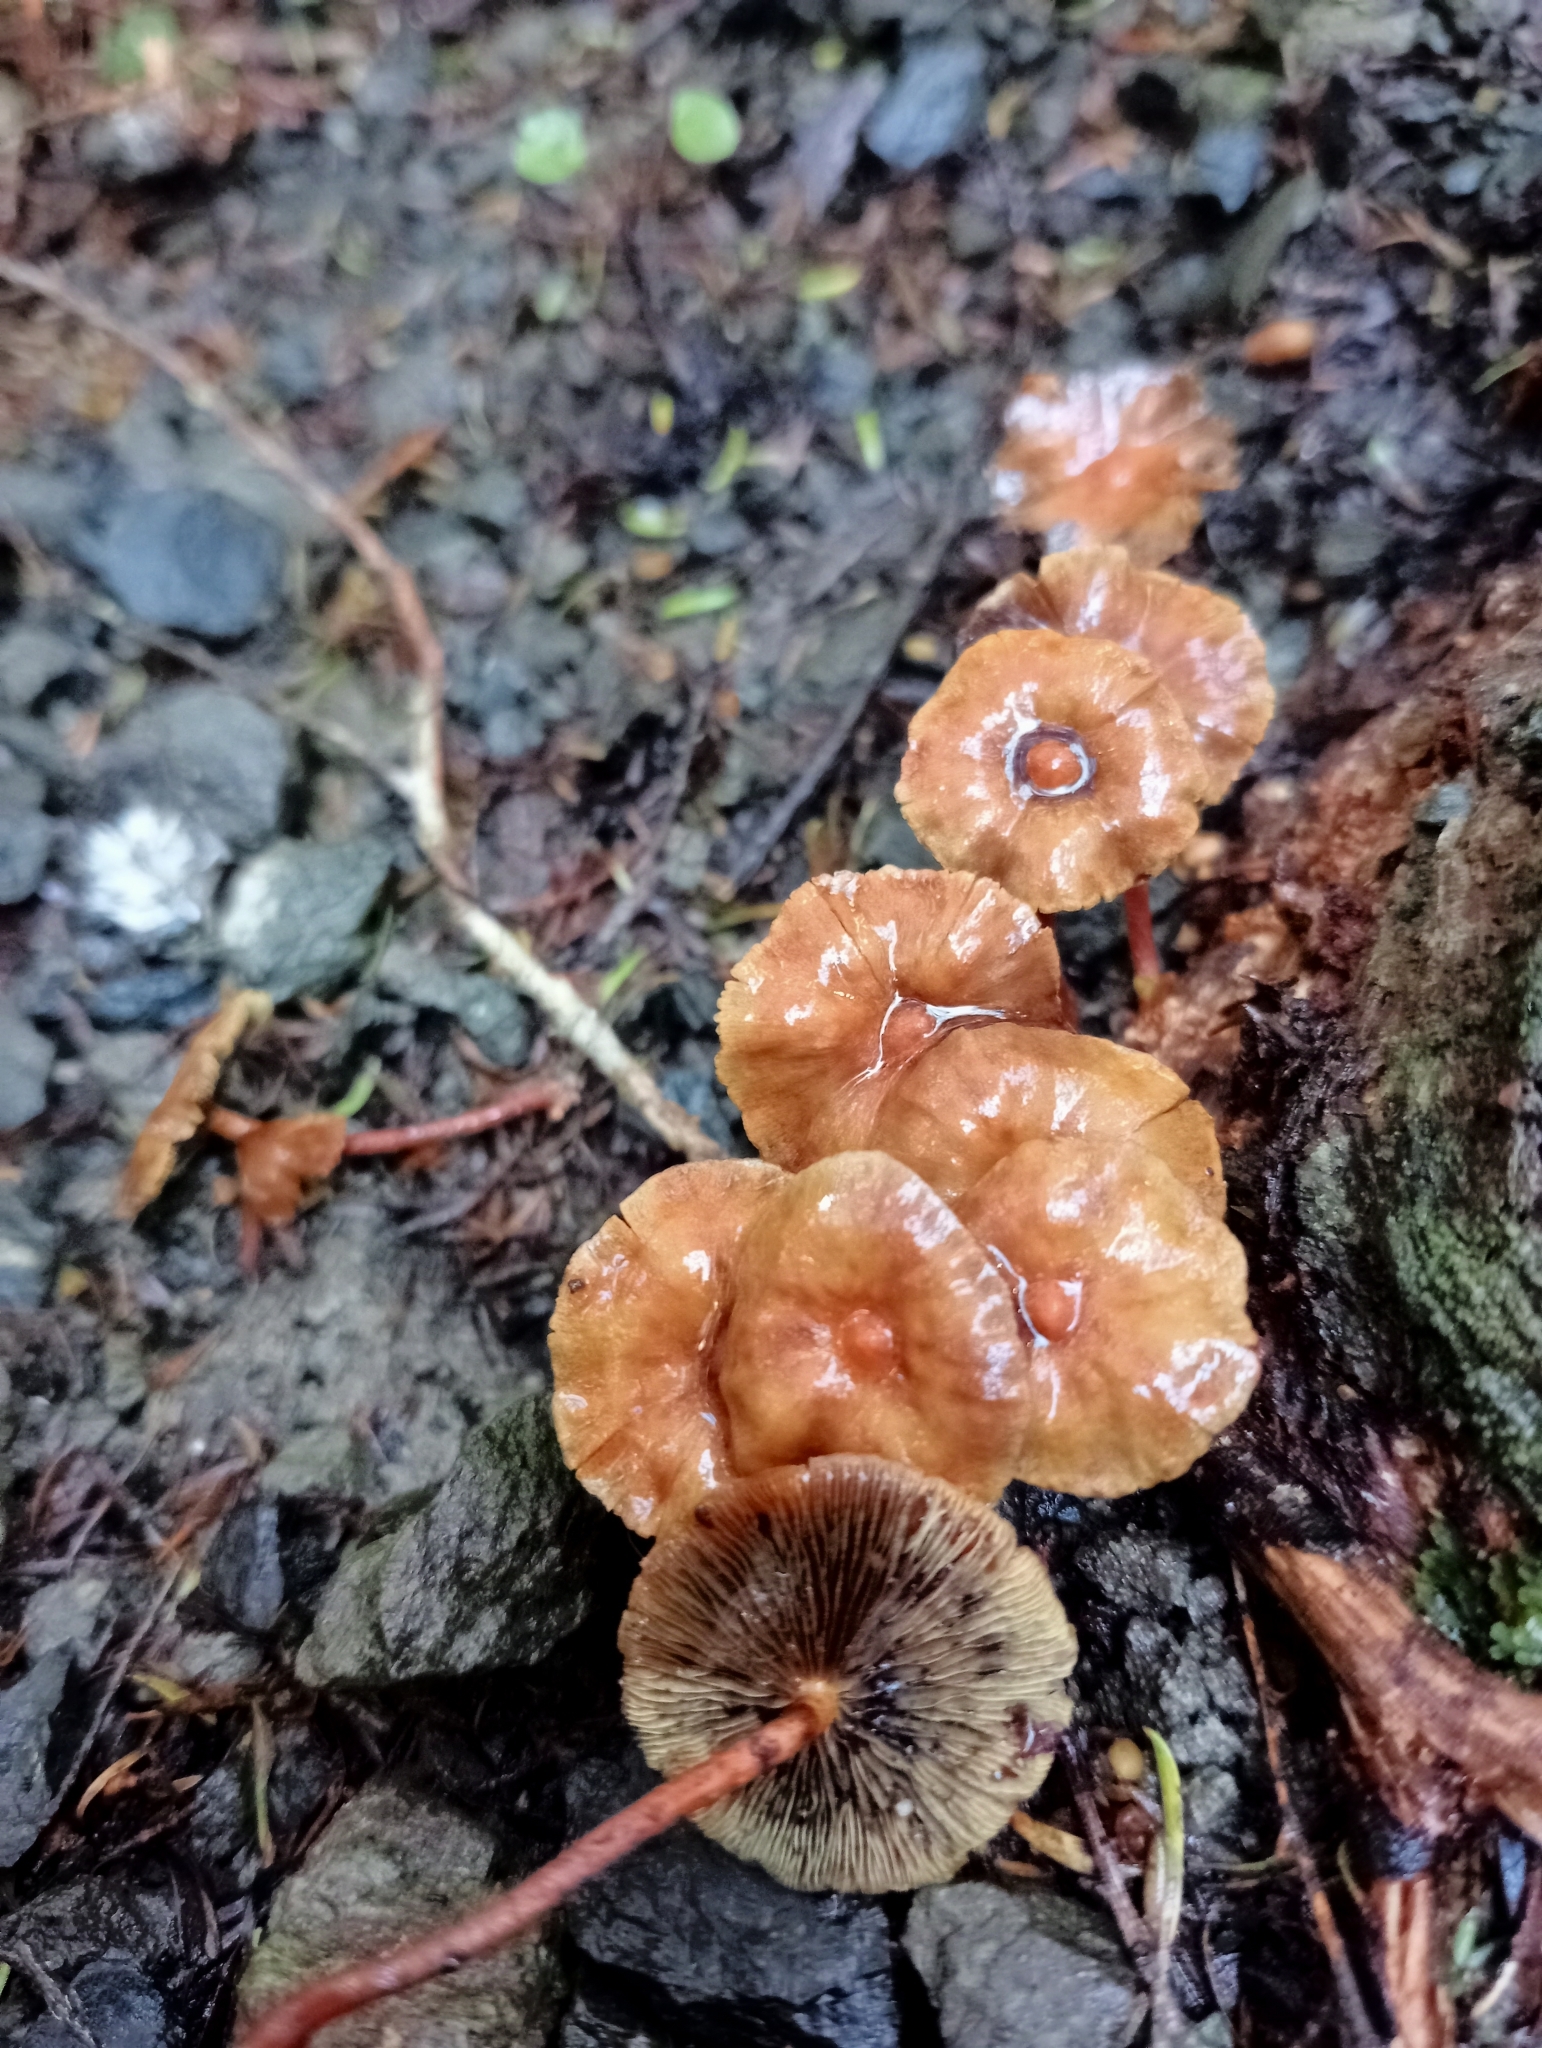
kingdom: Fungi
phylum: Basidiomycota
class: Agaricomycetes
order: Agaricales
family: Strophariaceae
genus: Hypholoma
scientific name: Hypholoma acutum
